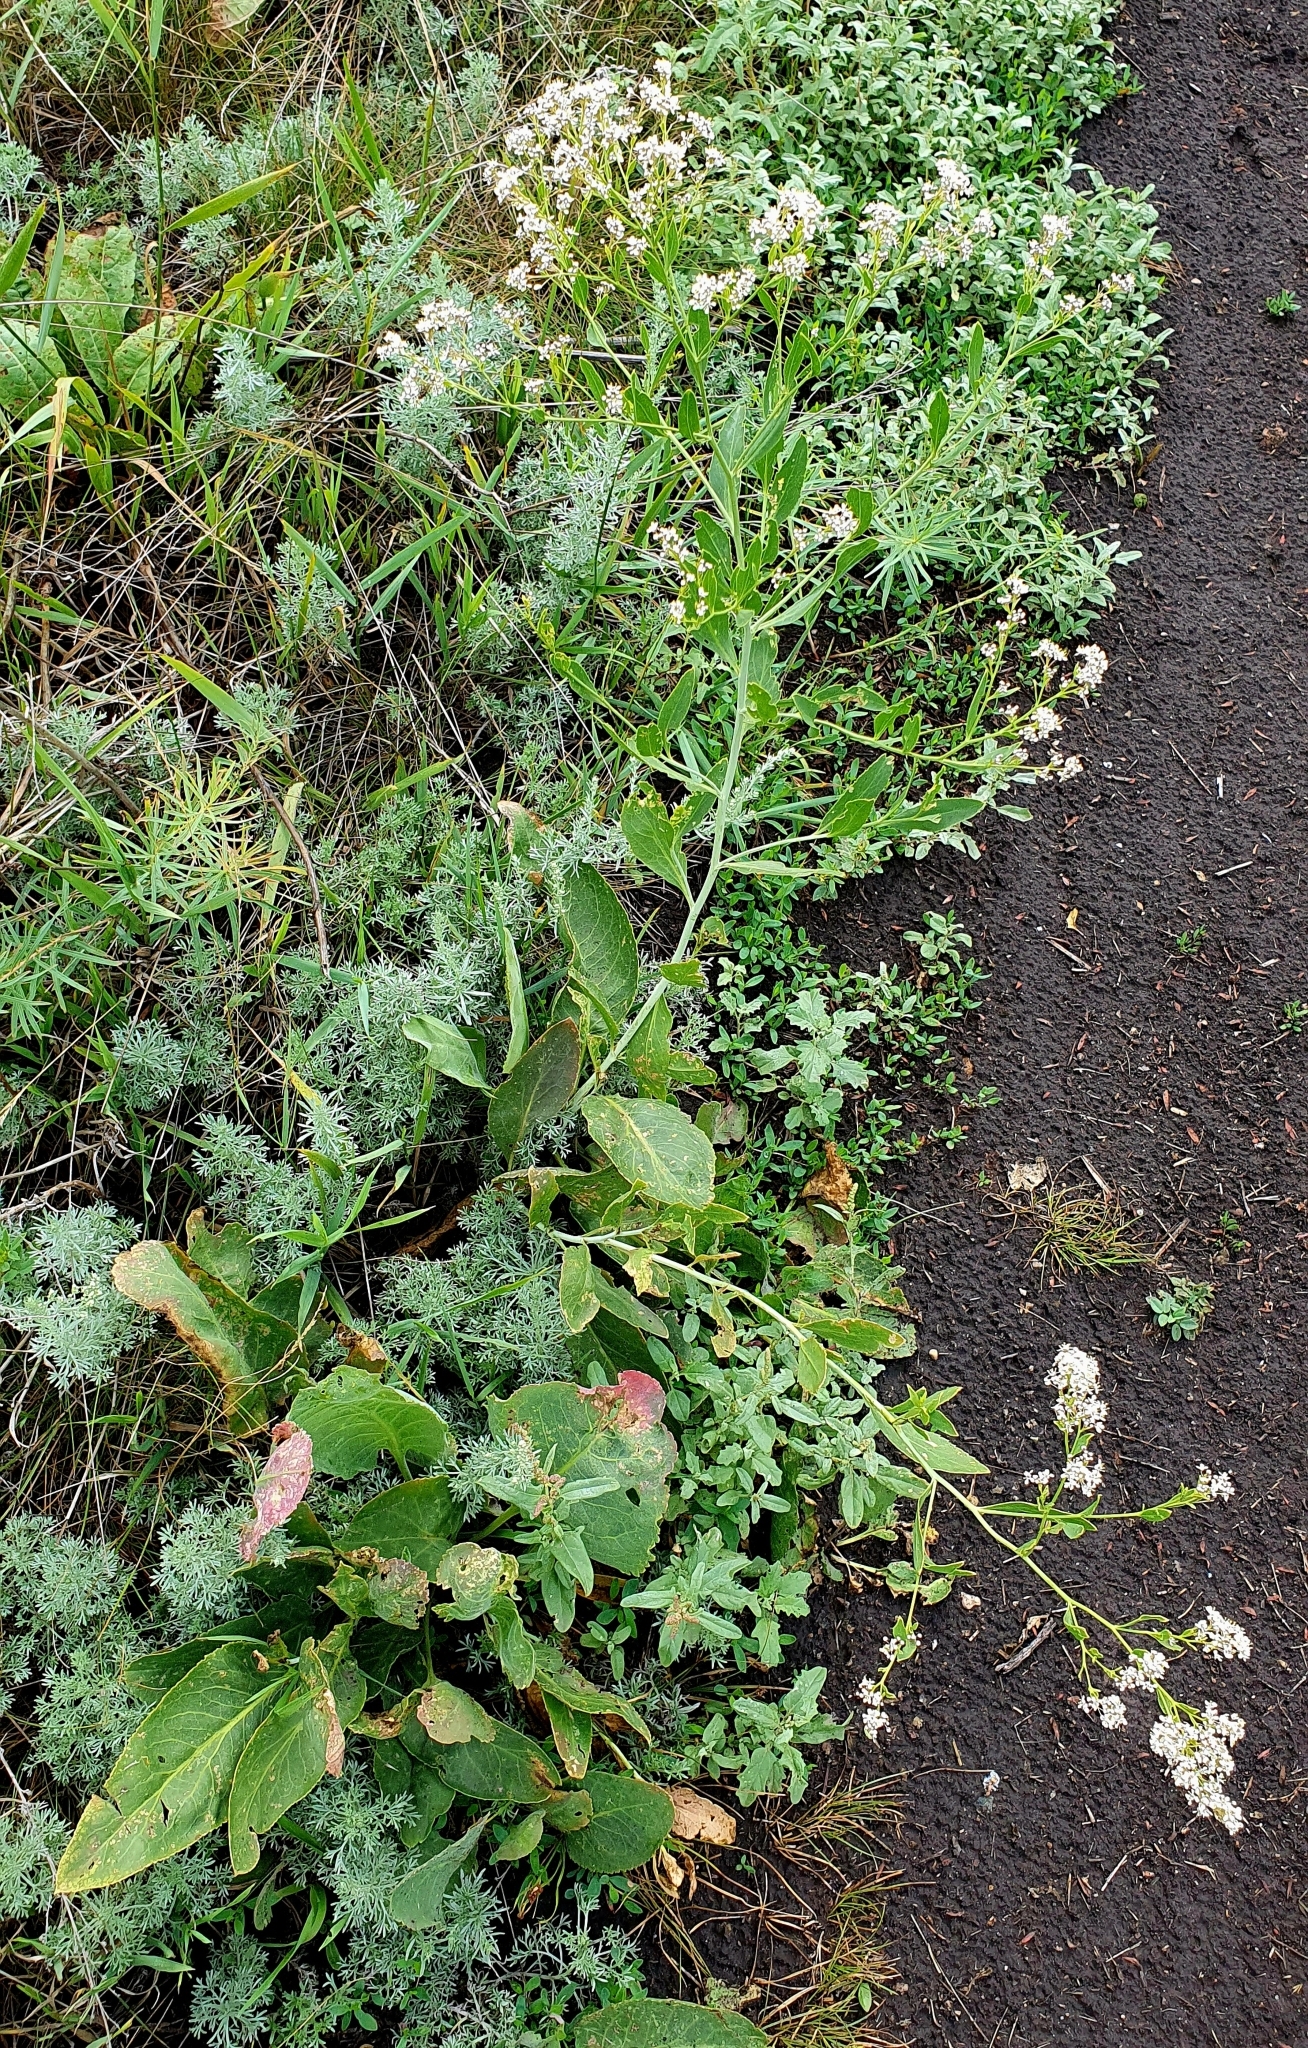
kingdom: Plantae
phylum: Tracheophyta
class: Magnoliopsida
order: Brassicales
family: Brassicaceae
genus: Lepidium
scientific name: Lepidium latifolium
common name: Dittander
